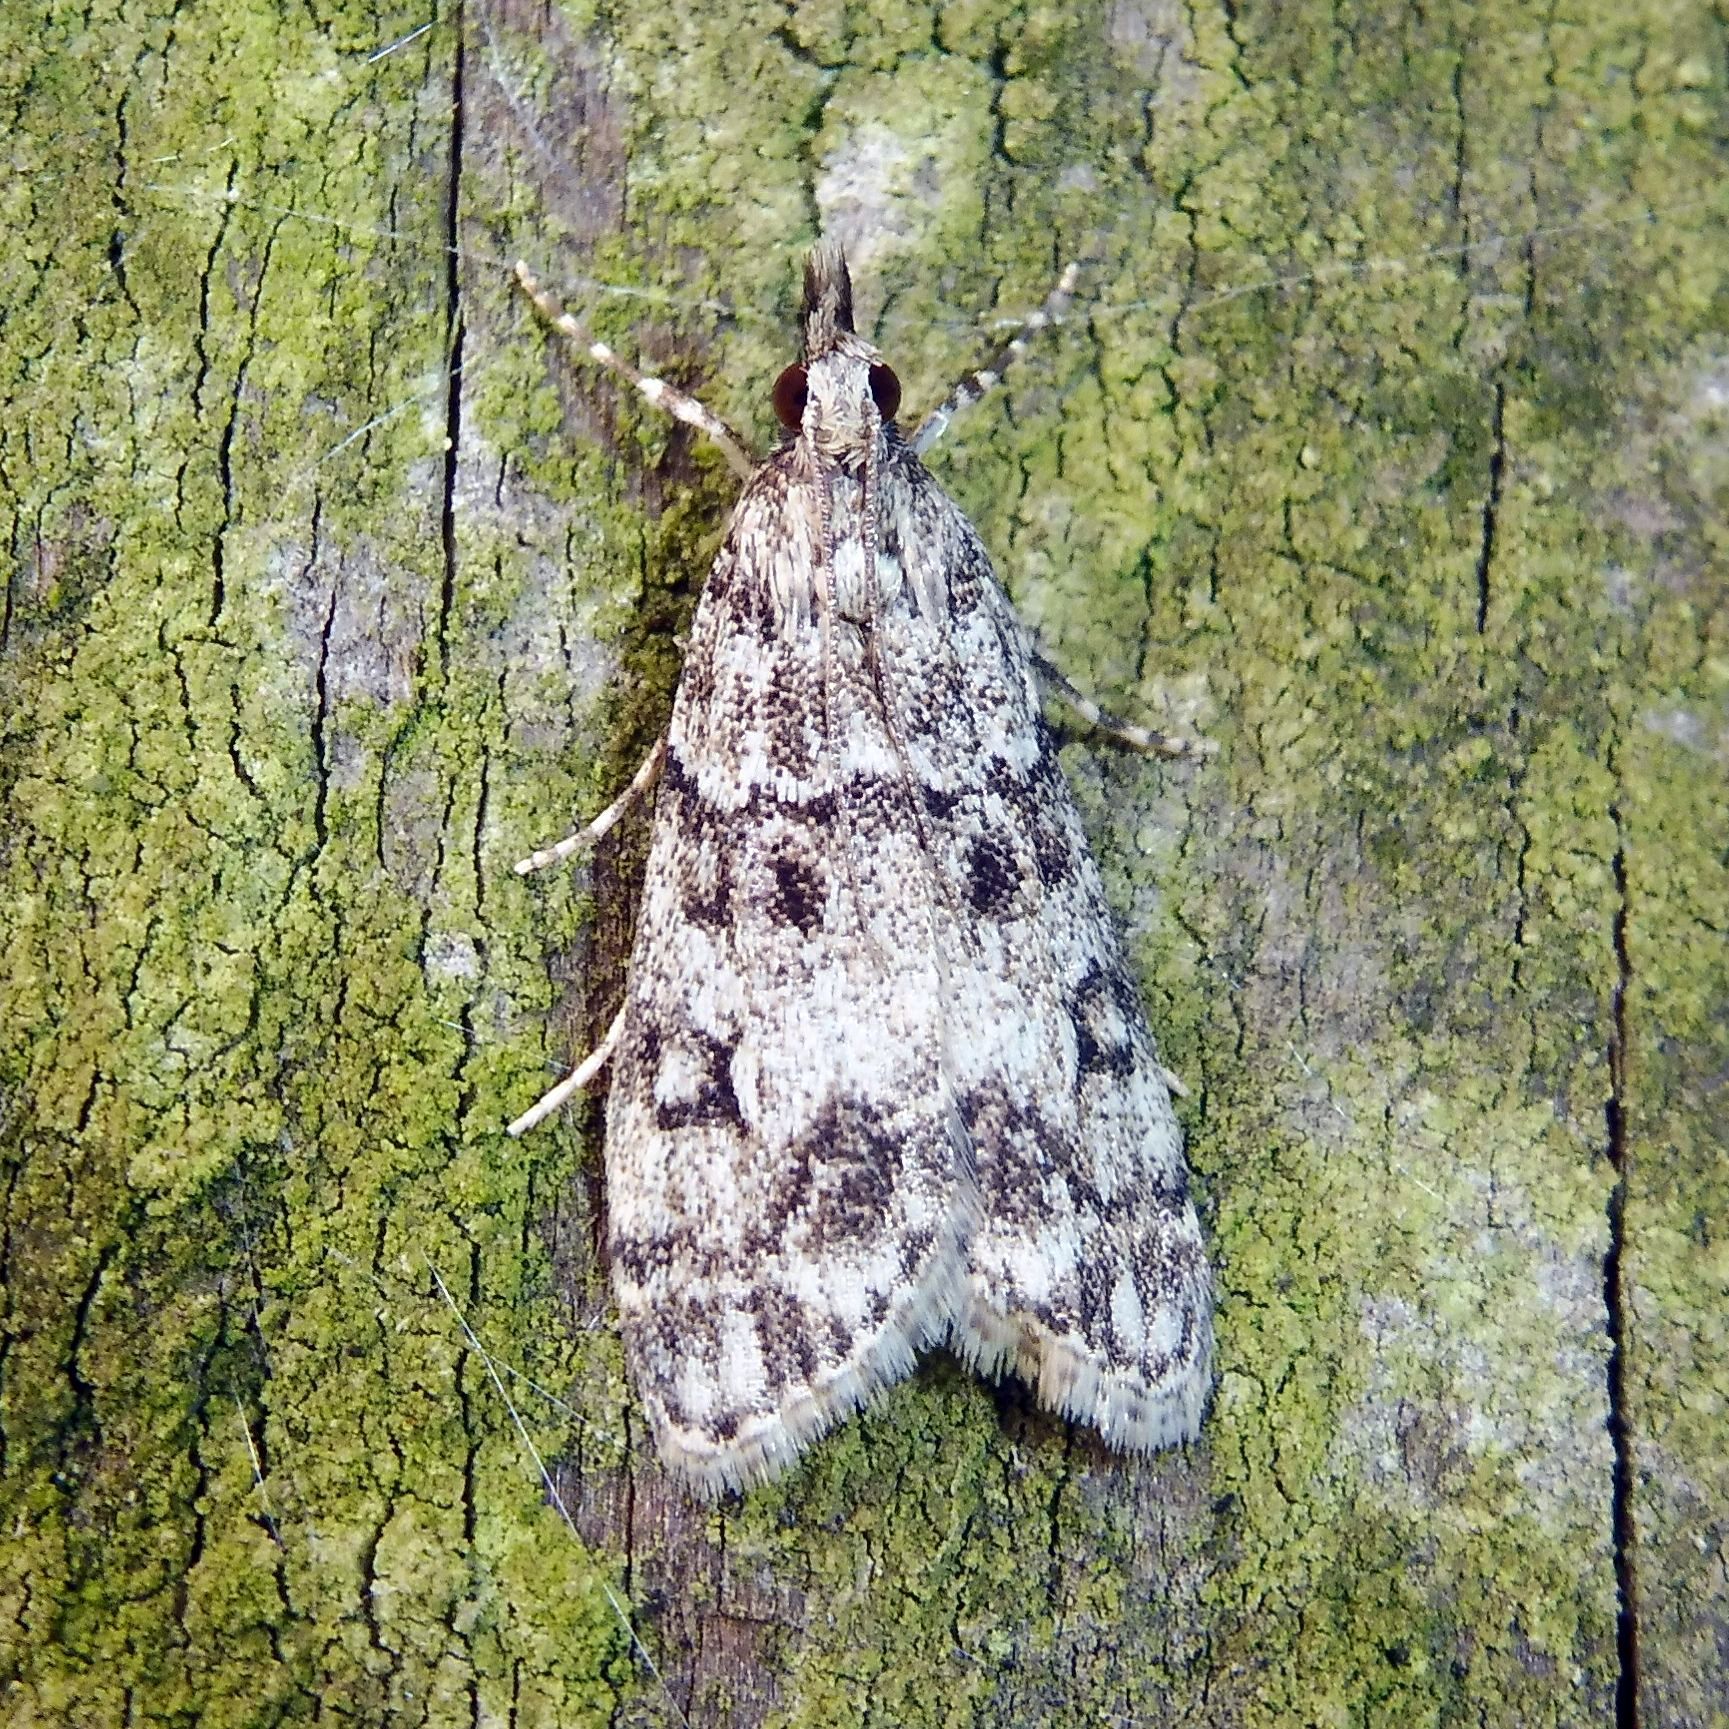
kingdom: Animalia
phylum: Arthropoda
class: Insecta
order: Lepidoptera
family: Crambidae
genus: Eudonia
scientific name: Eudonia lacustrata
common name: Little grey
